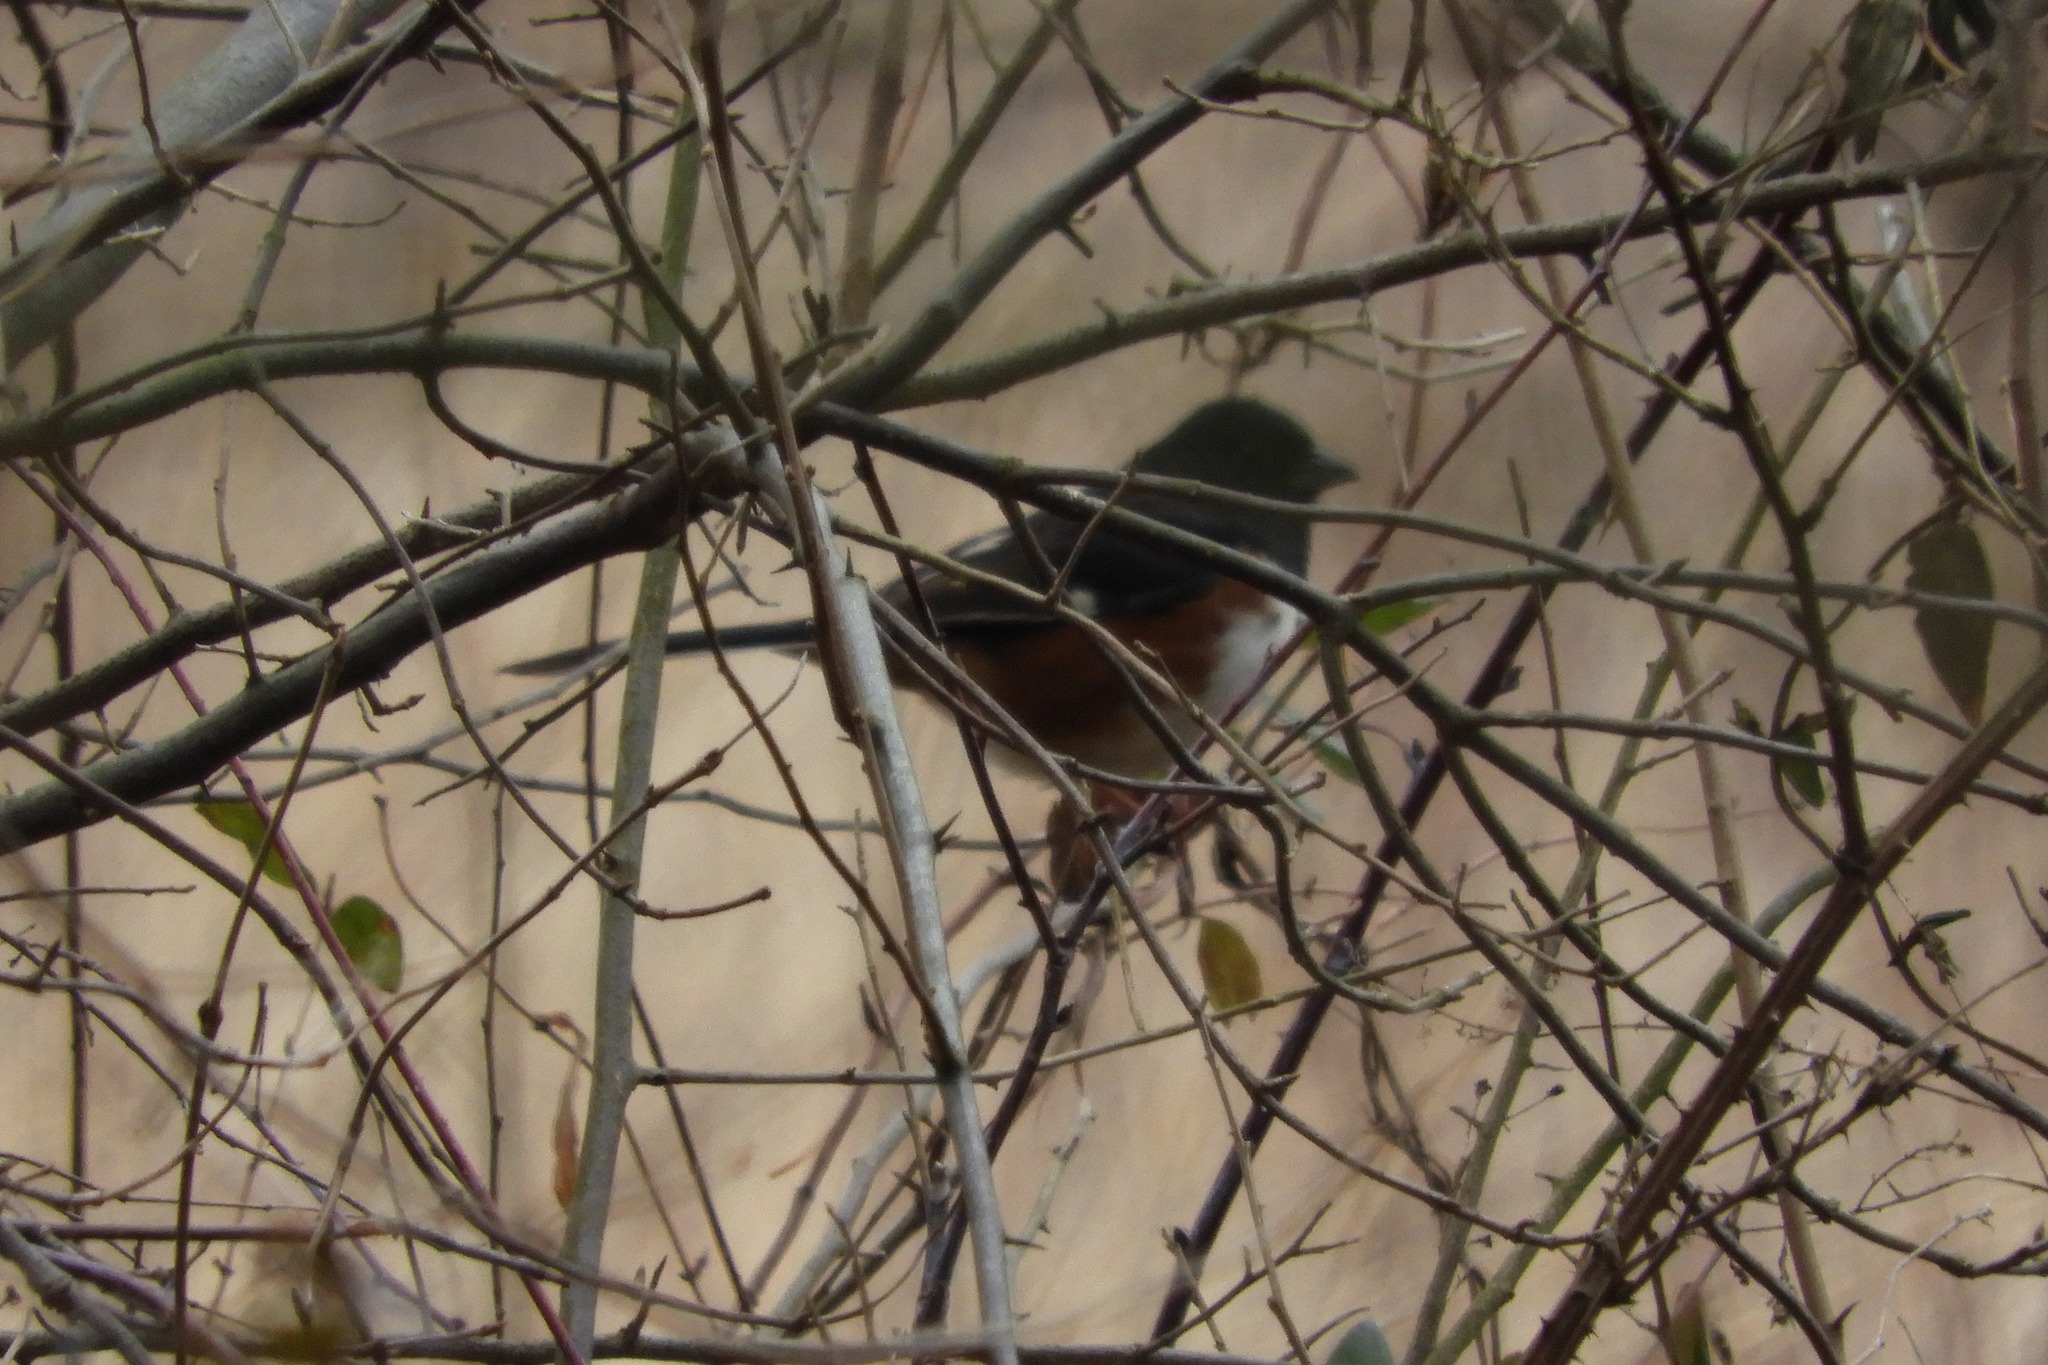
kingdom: Animalia
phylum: Chordata
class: Aves
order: Passeriformes
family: Passerellidae
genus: Pipilo
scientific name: Pipilo erythrophthalmus
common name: Eastern towhee
